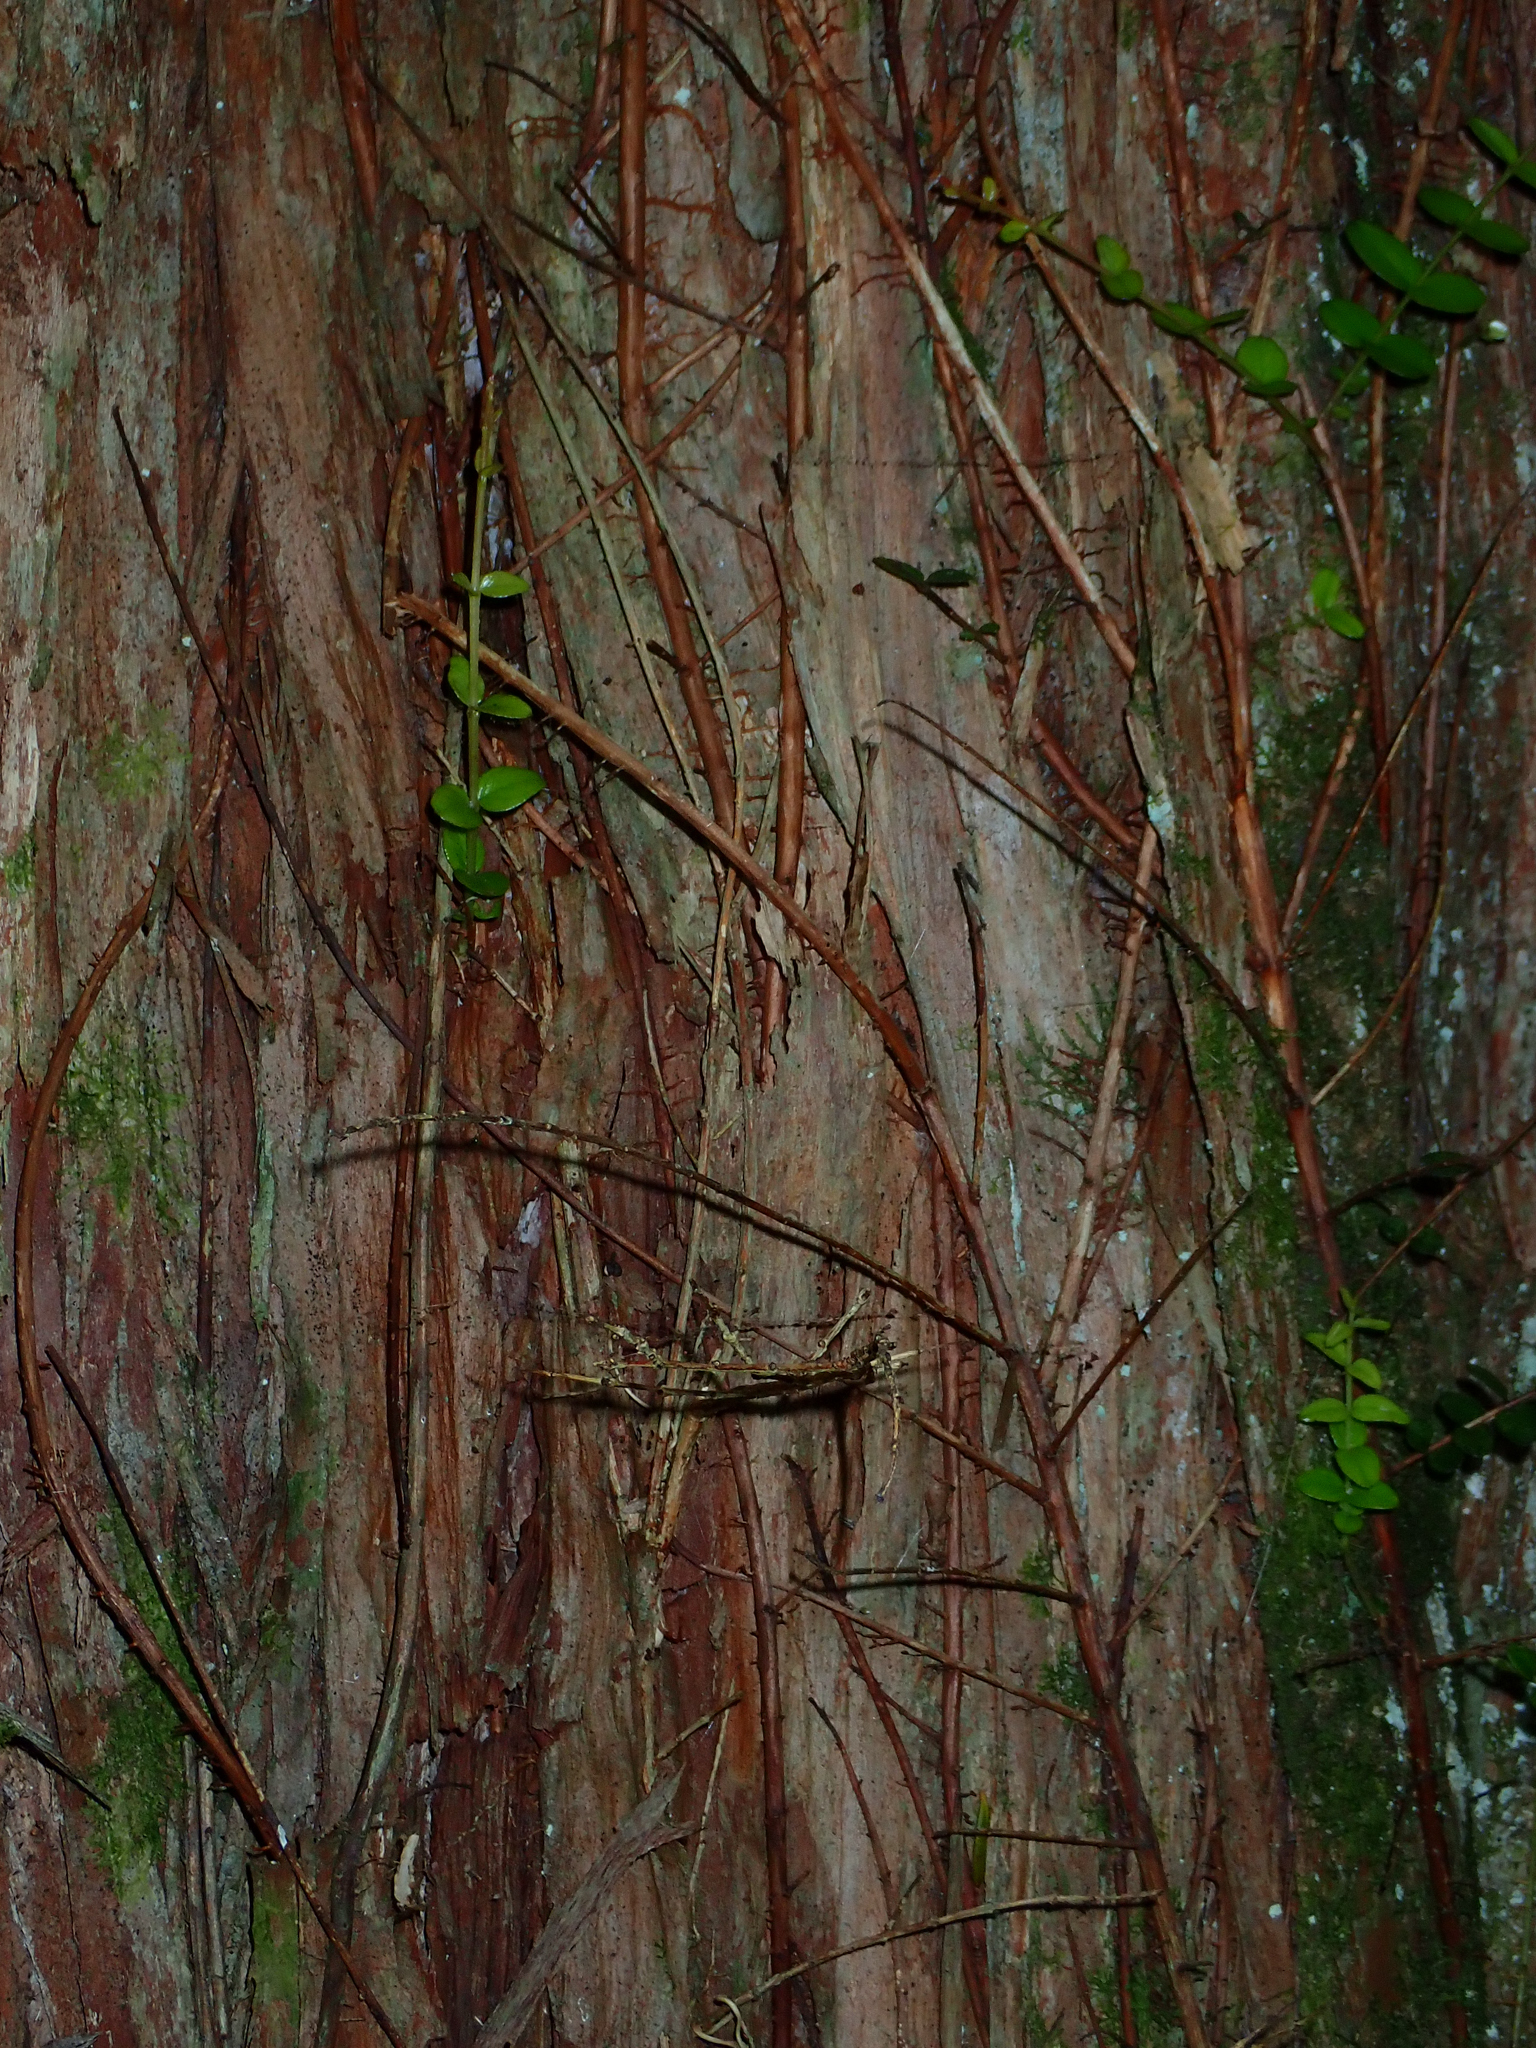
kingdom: Plantae
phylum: Tracheophyta
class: Pinopsida
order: Pinales
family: Podocarpaceae
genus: Podocarpus
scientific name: Podocarpus laetus
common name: Hall's totara
